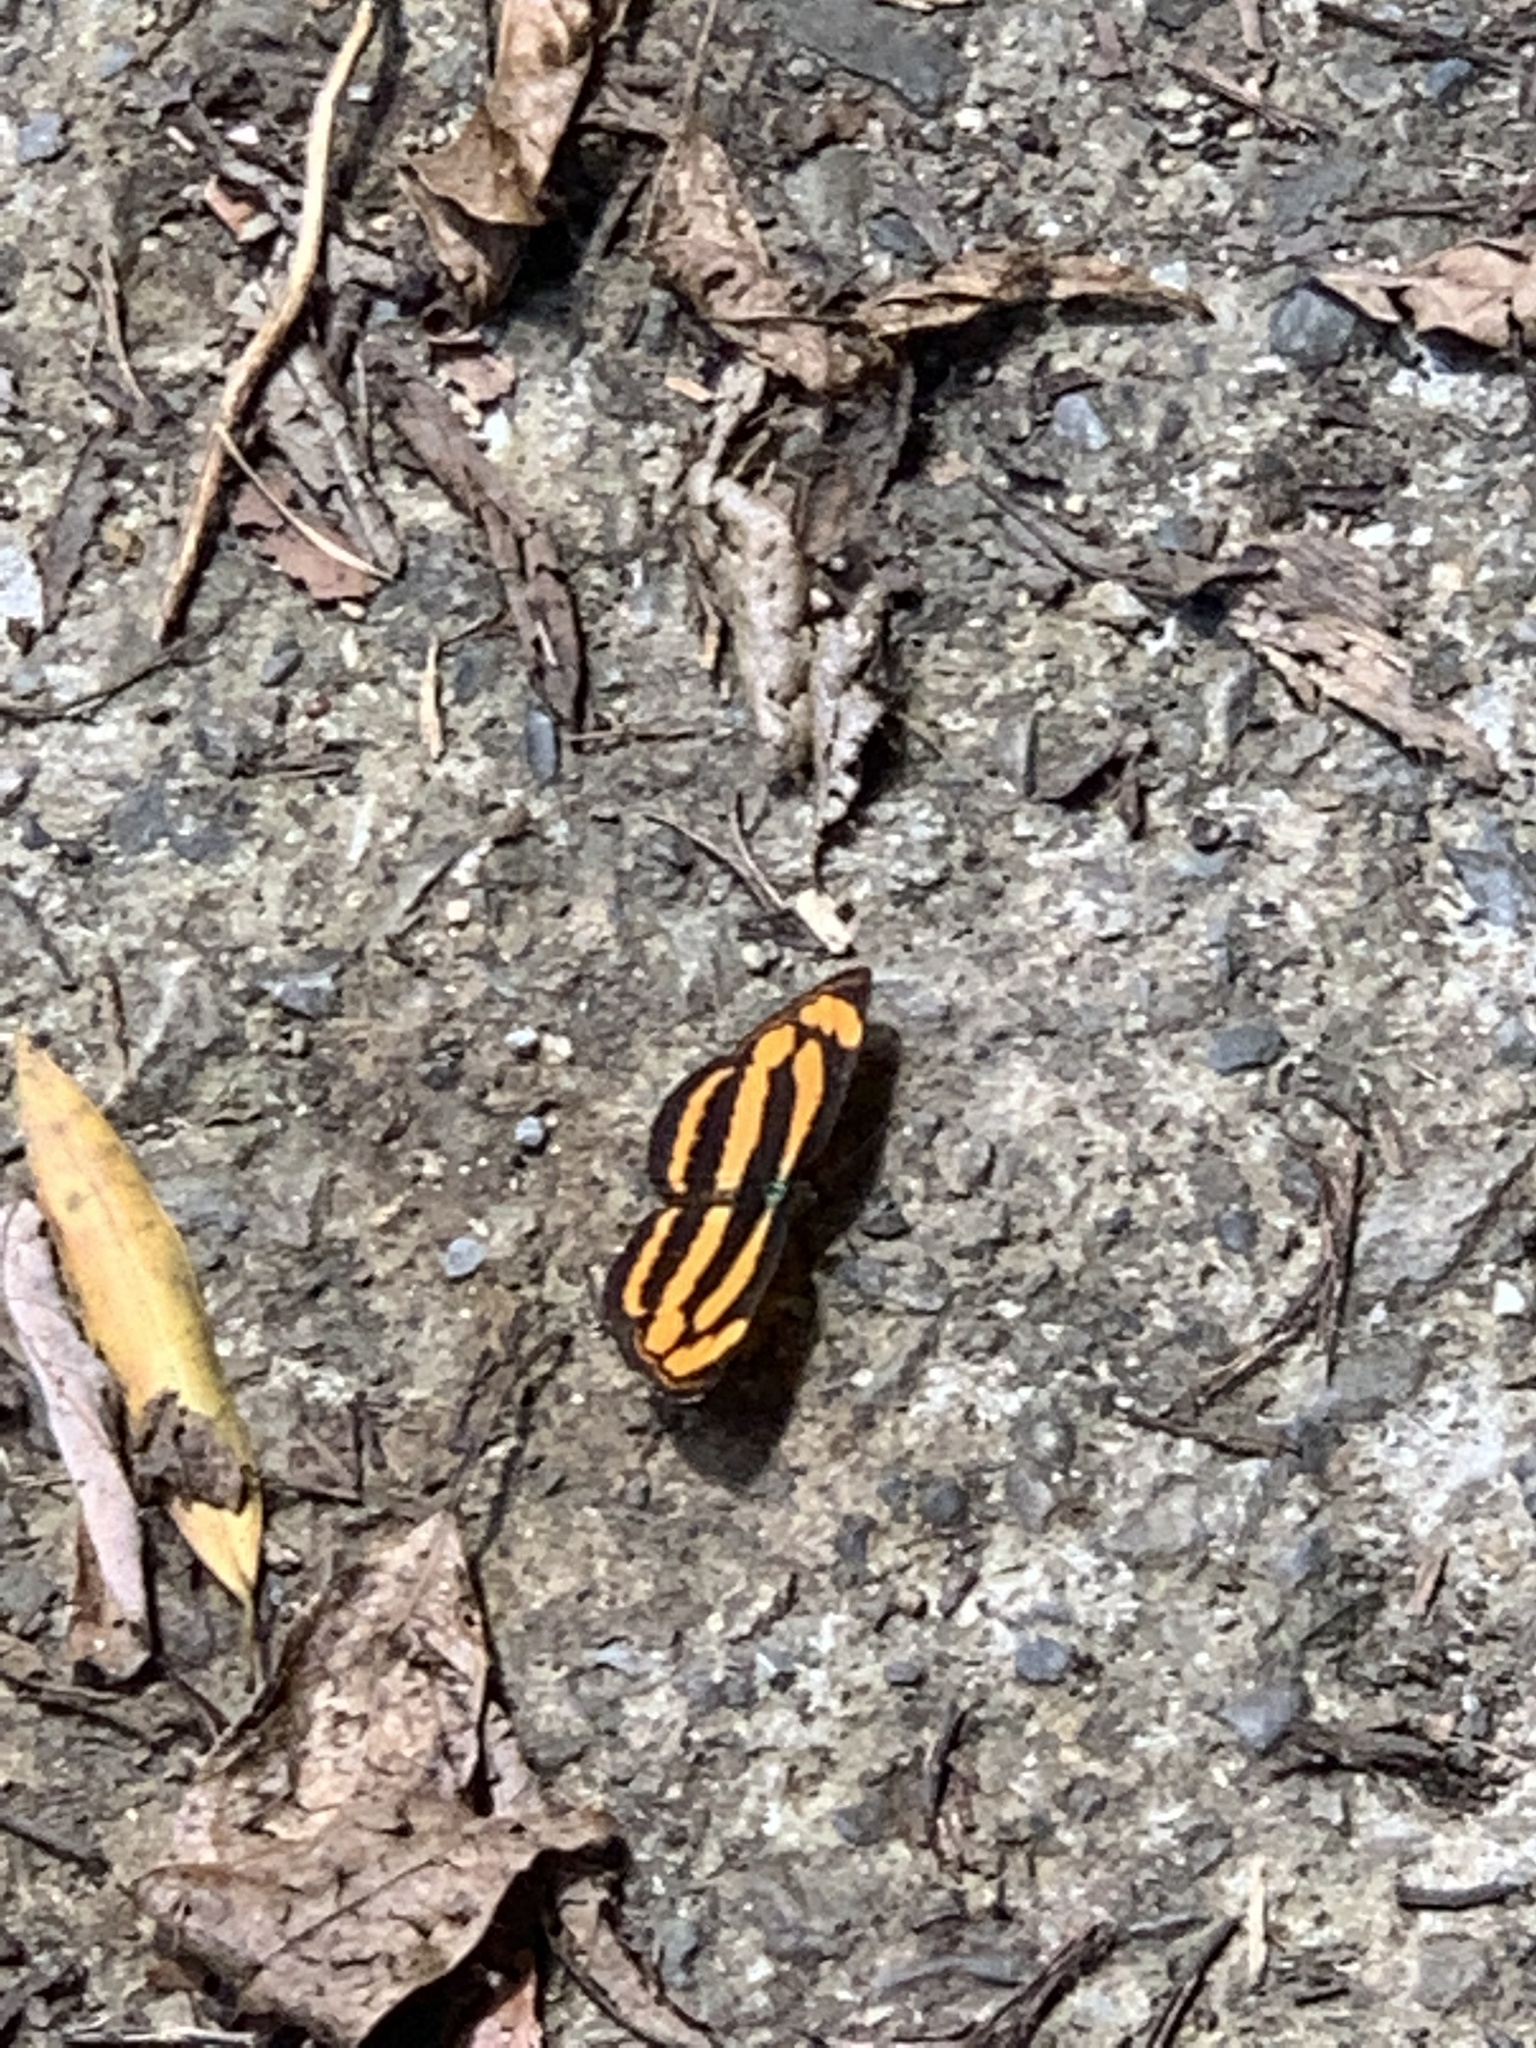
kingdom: Animalia
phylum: Arthropoda
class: Insecta
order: Lepidoptera
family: Nymphalidae
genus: Pantoporia
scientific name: Pantoporia hordonia
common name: Common lascar
